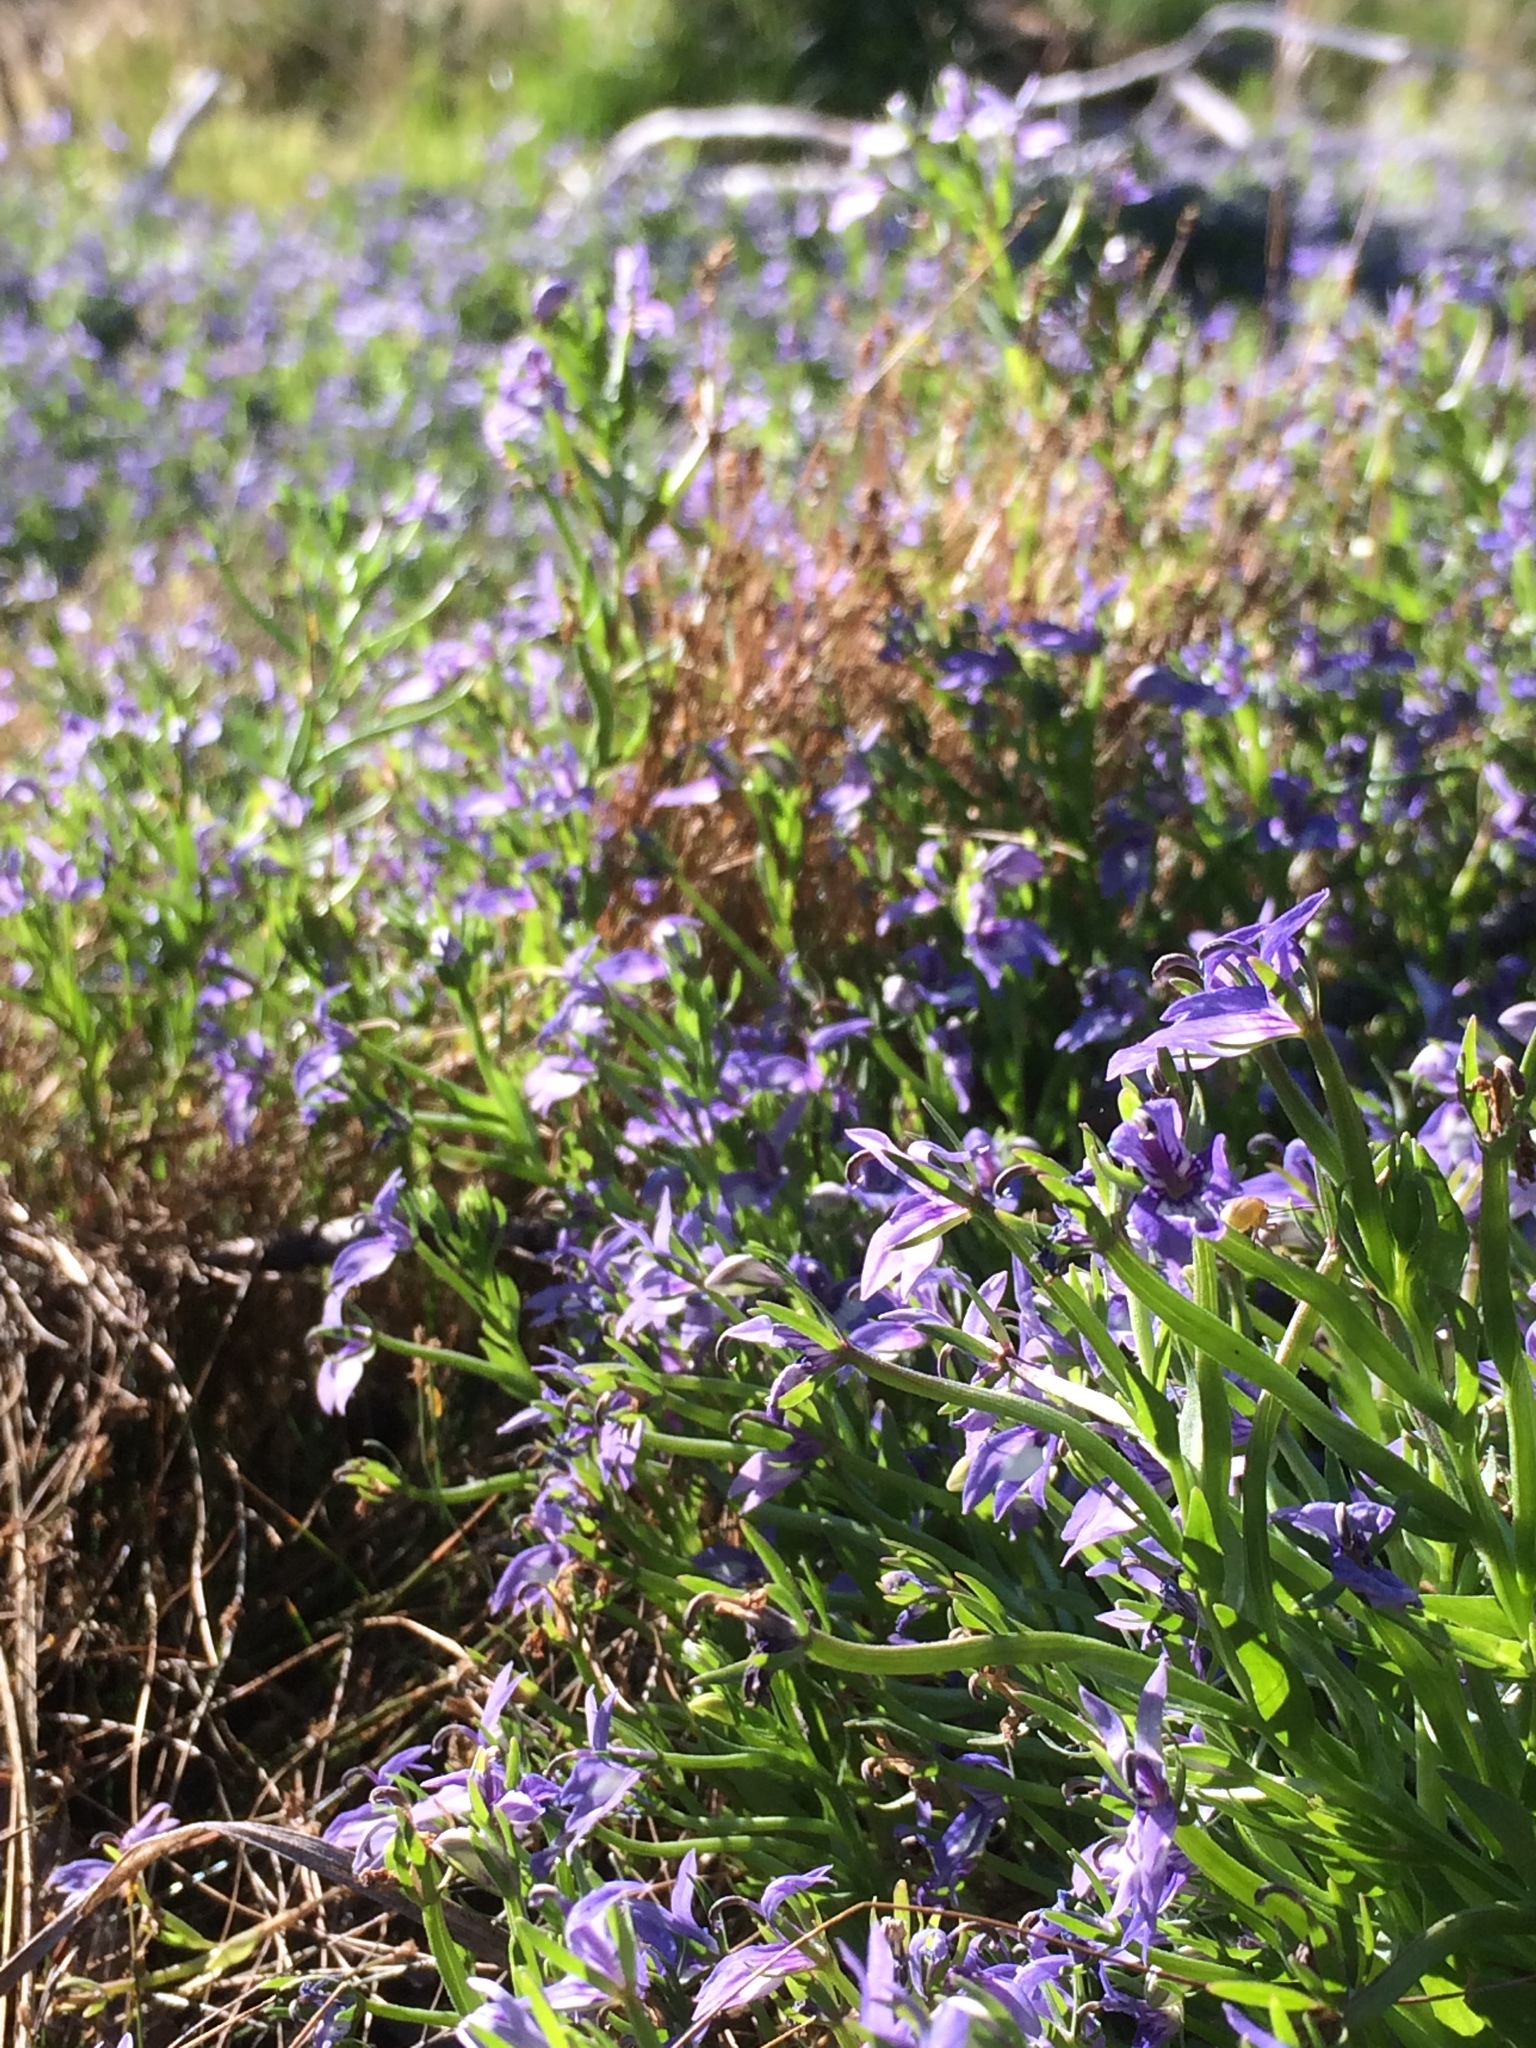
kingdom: Plantae
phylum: Tracheophyta
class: Magnoliopsida
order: Asterales
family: Campanulaceae
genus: Downingia
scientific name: Downingia elegans
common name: Californian lobelia
